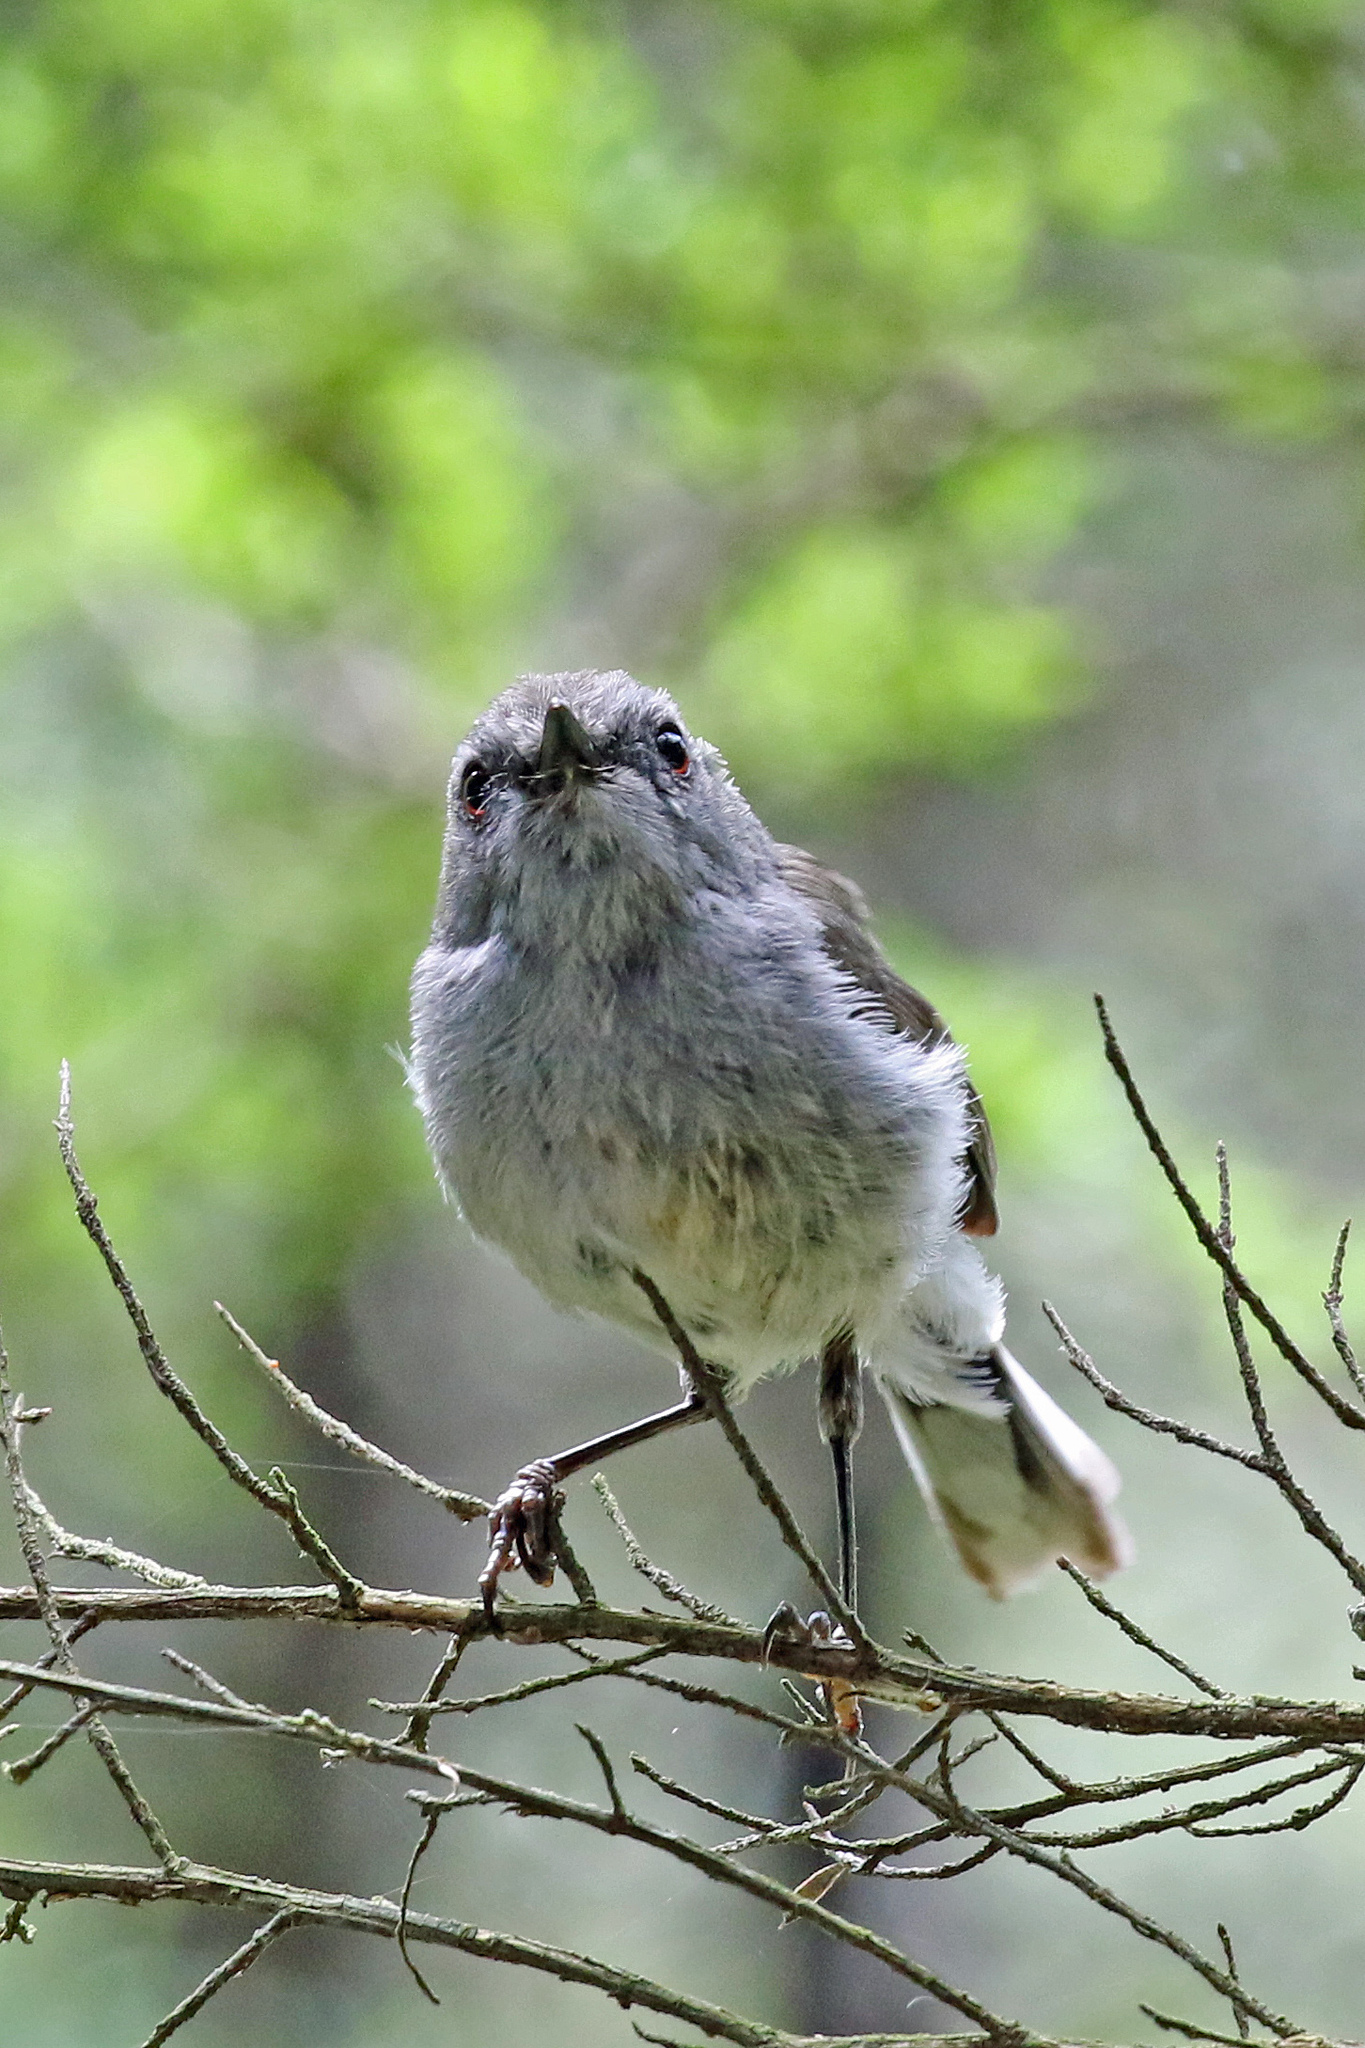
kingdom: Animalia
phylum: Chordata
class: Aves
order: Passeriformes
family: Acanthizidae
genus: Gerygone
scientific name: Gerygone igata
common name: Grey gerygone
